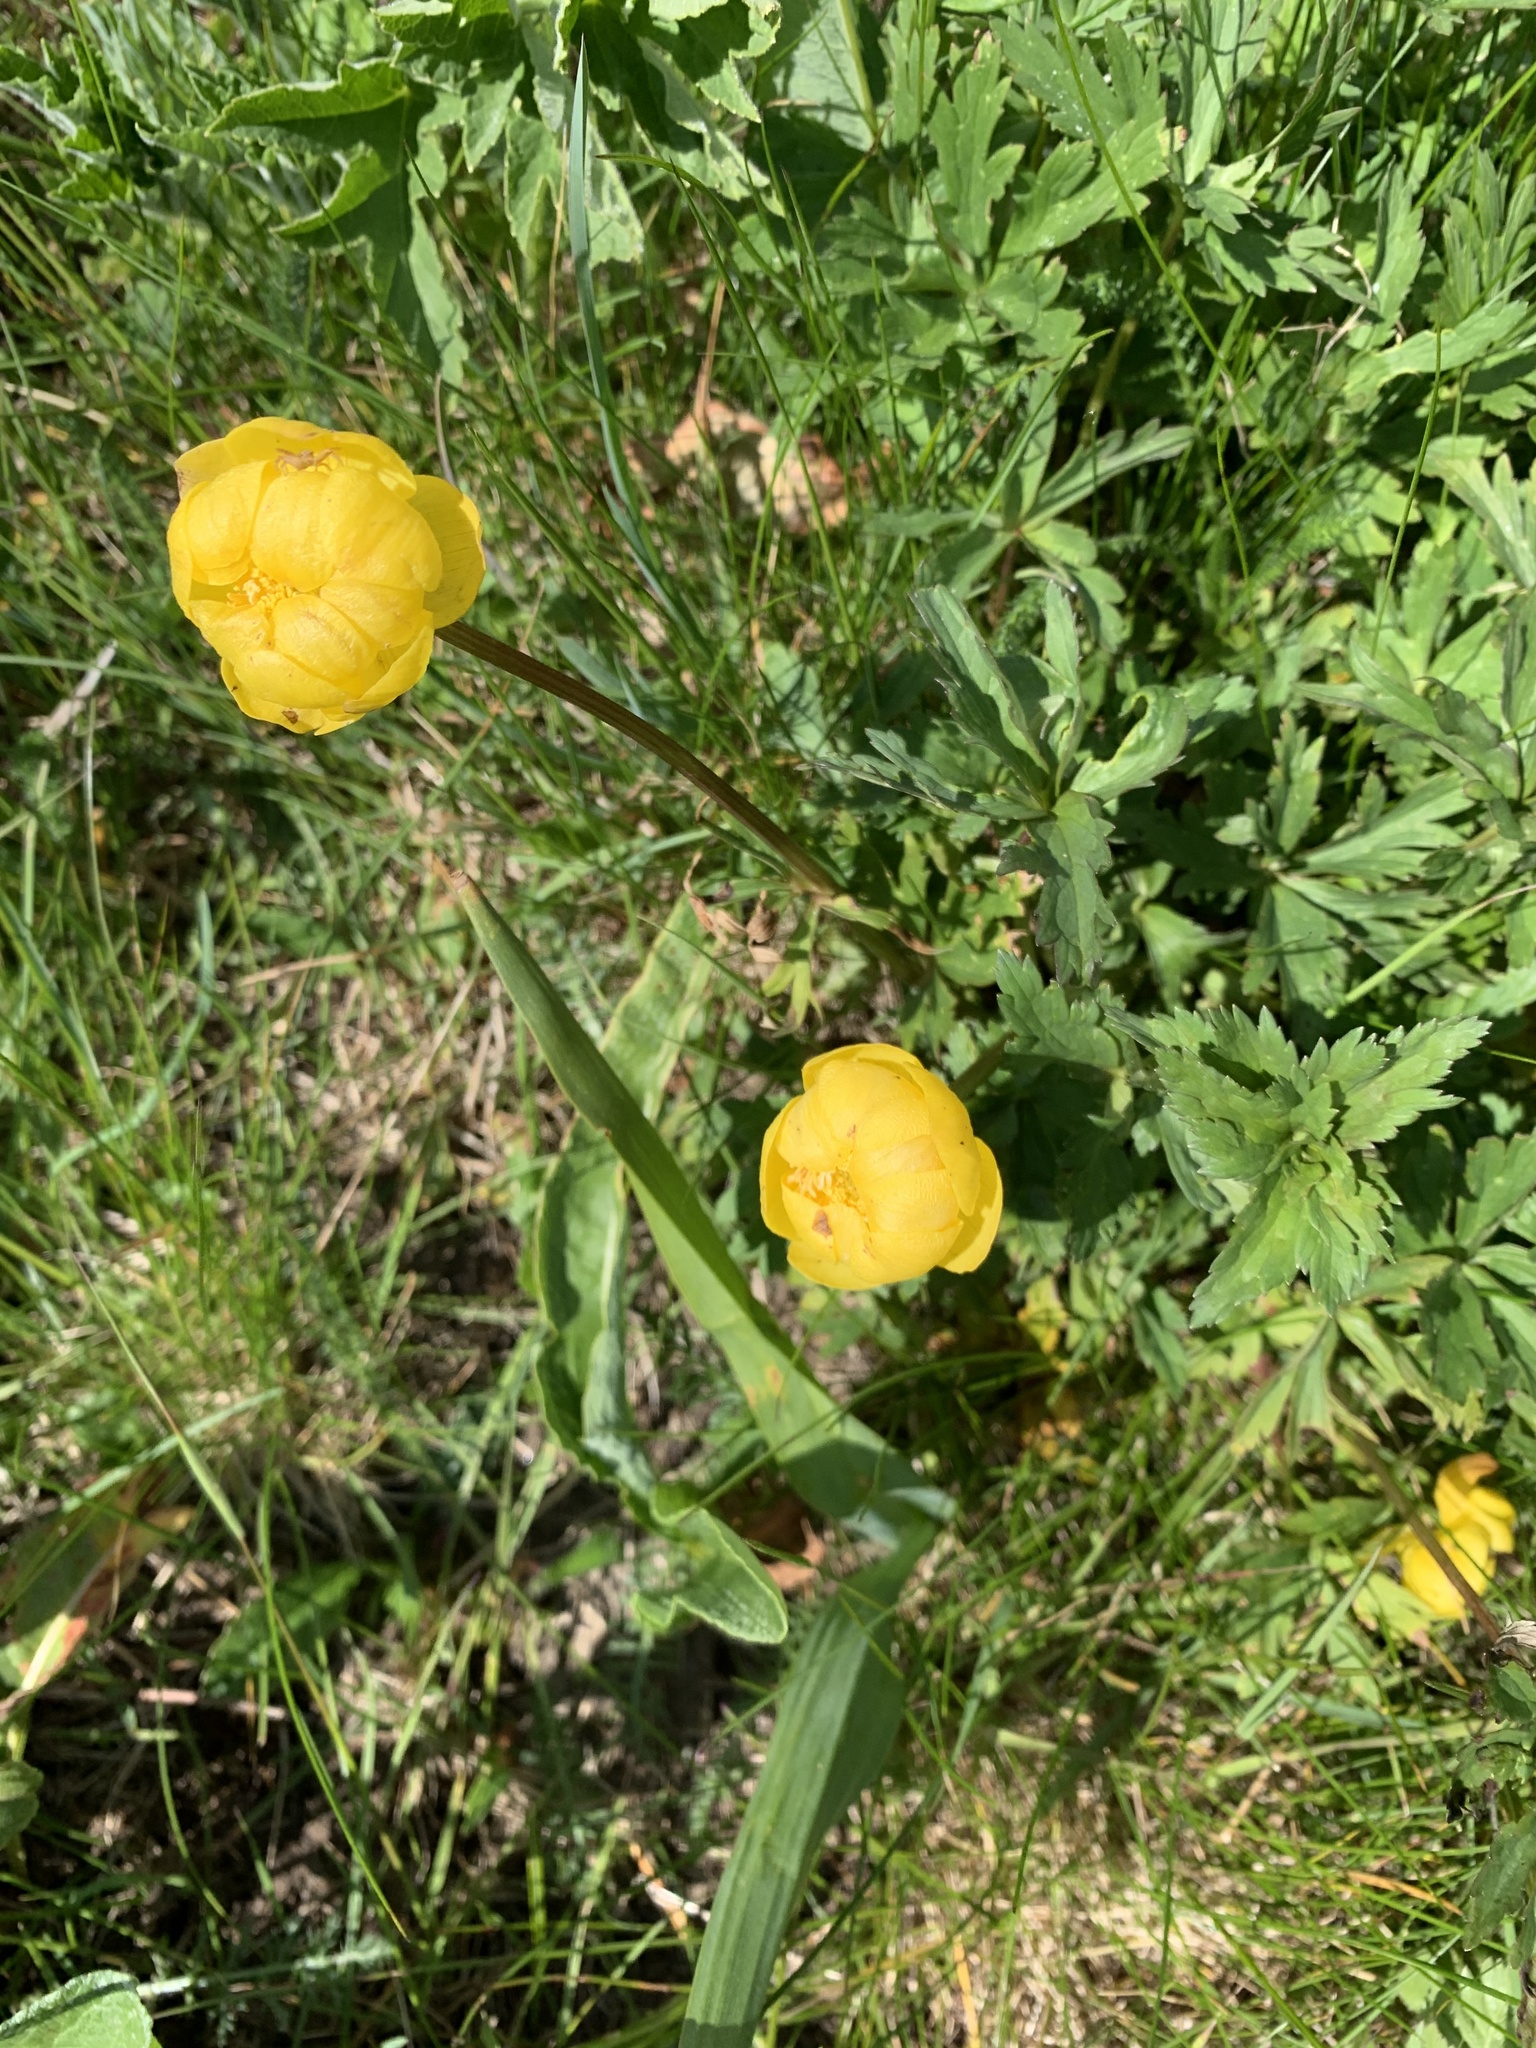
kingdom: Plantae
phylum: Tracheophyta
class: Magnoliopsida
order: Ranunculales
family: Ranunculaceae
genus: Trollius
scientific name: Trollius europaeus
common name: European globeflower
